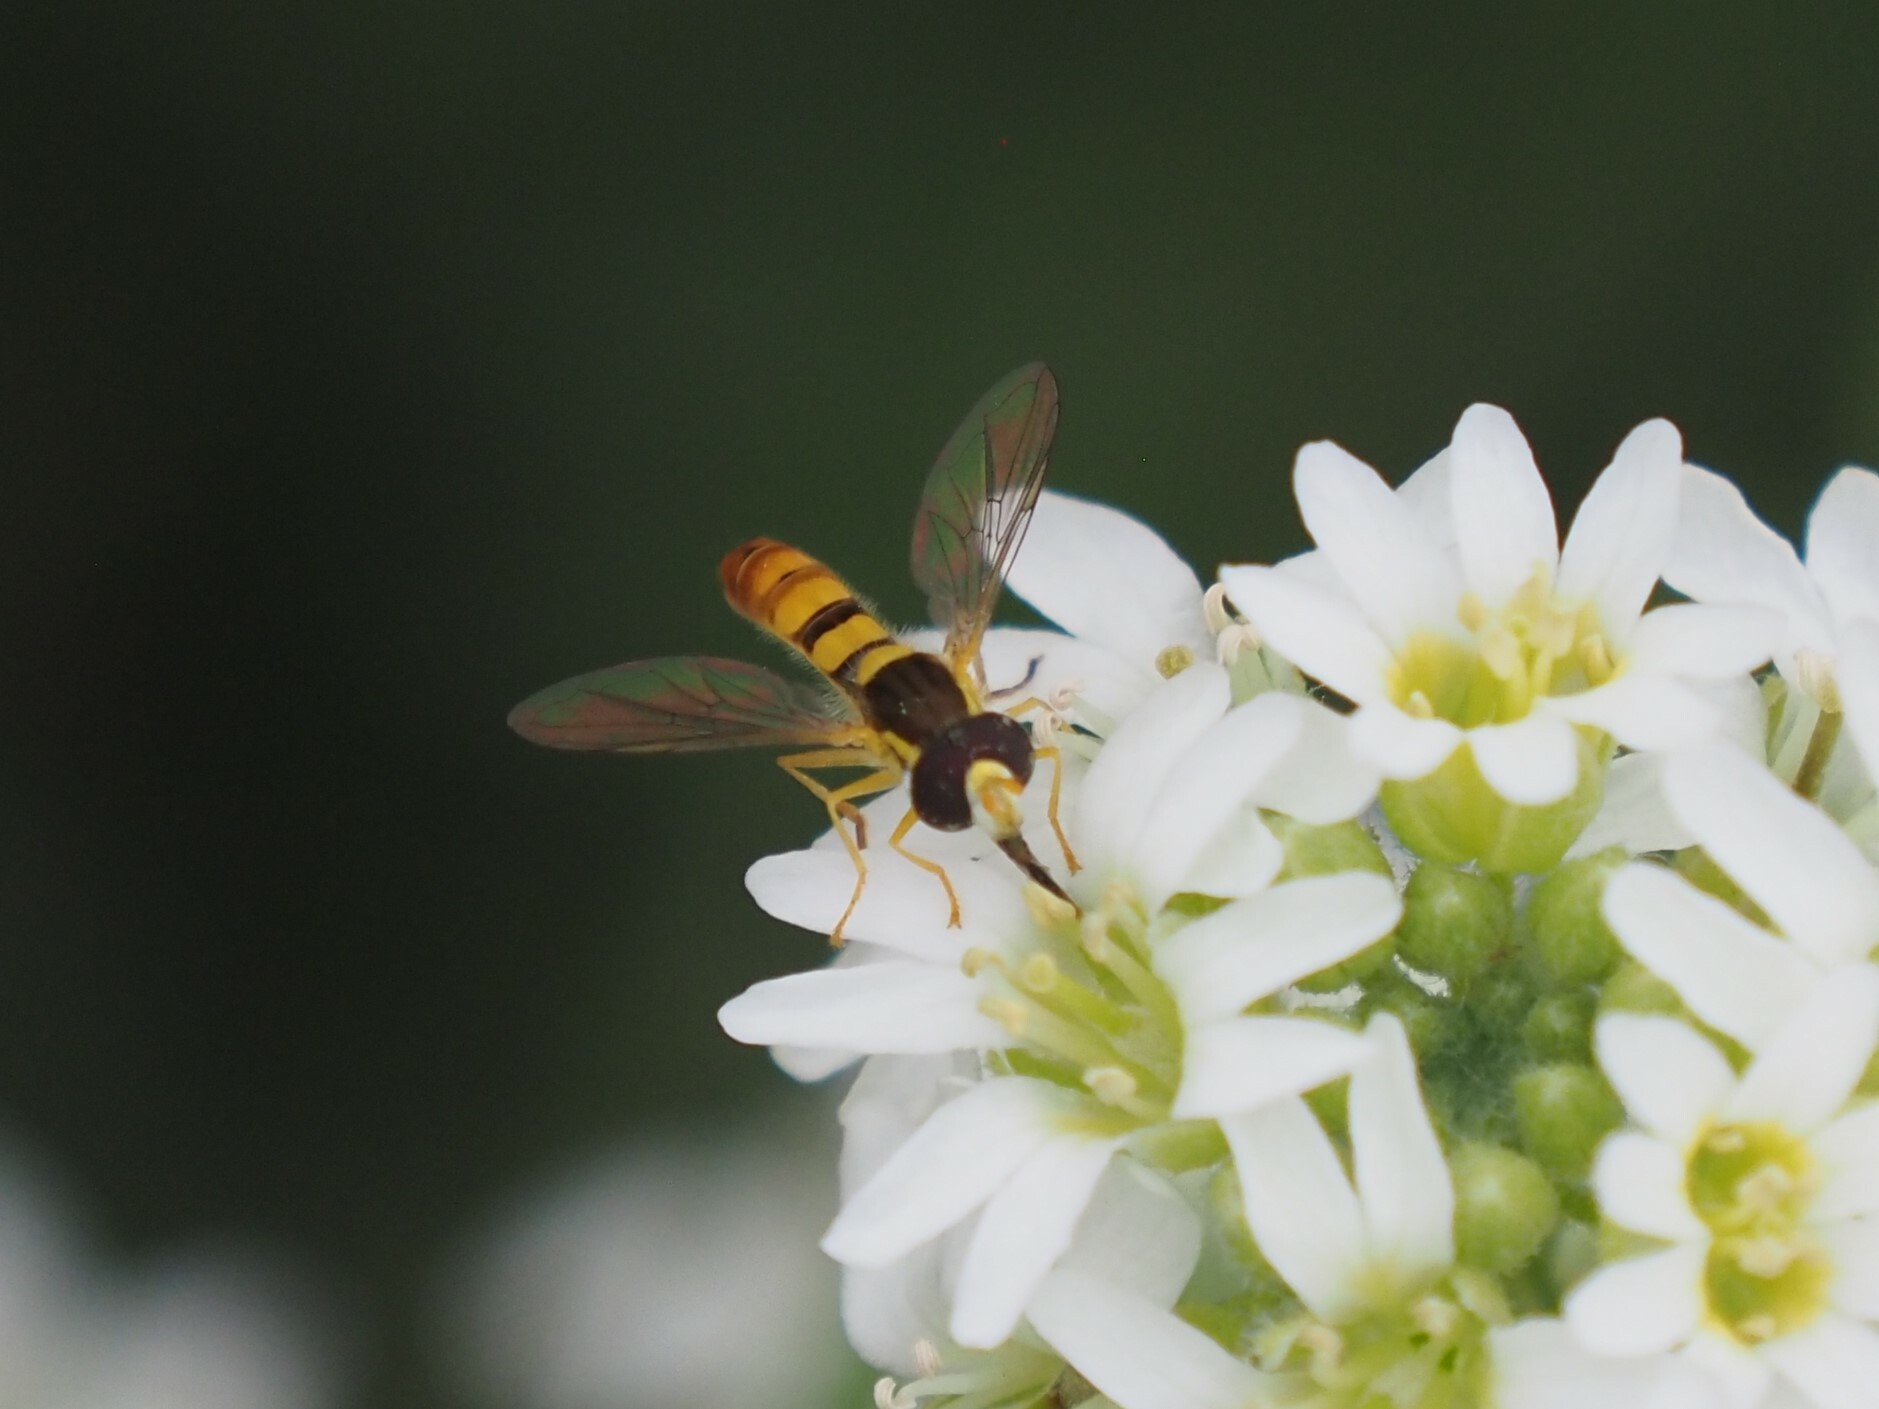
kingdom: Animalia
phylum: Arthropoda
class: Insecta
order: Diptera
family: Syrphidae
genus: Sphaerophoria
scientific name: Sphaerophoria contigua
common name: Tufted globetail
